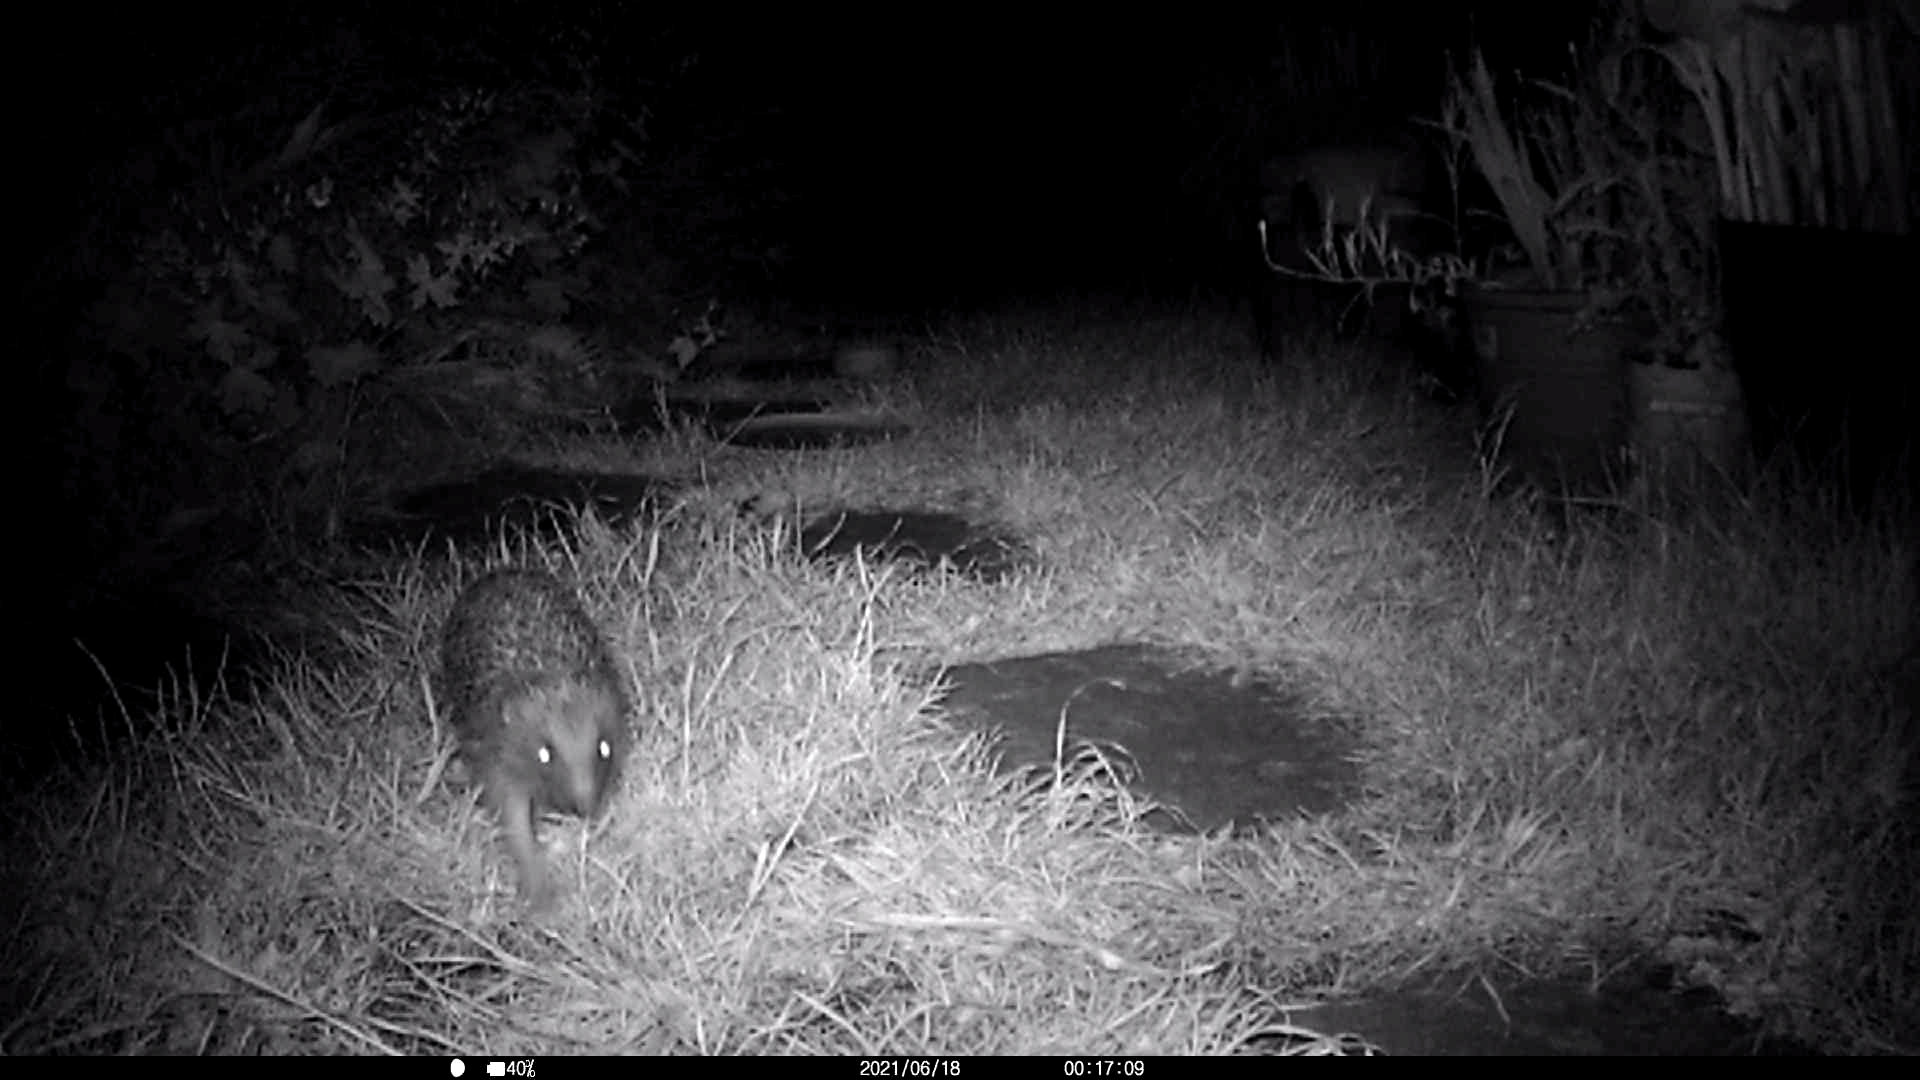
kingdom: Animalia
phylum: Chordata
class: Mammalia
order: Erinaceomorpha
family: Erinaceidae
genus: Erinaceus
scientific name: Erinaceus europaeus
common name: West european hedgehog
